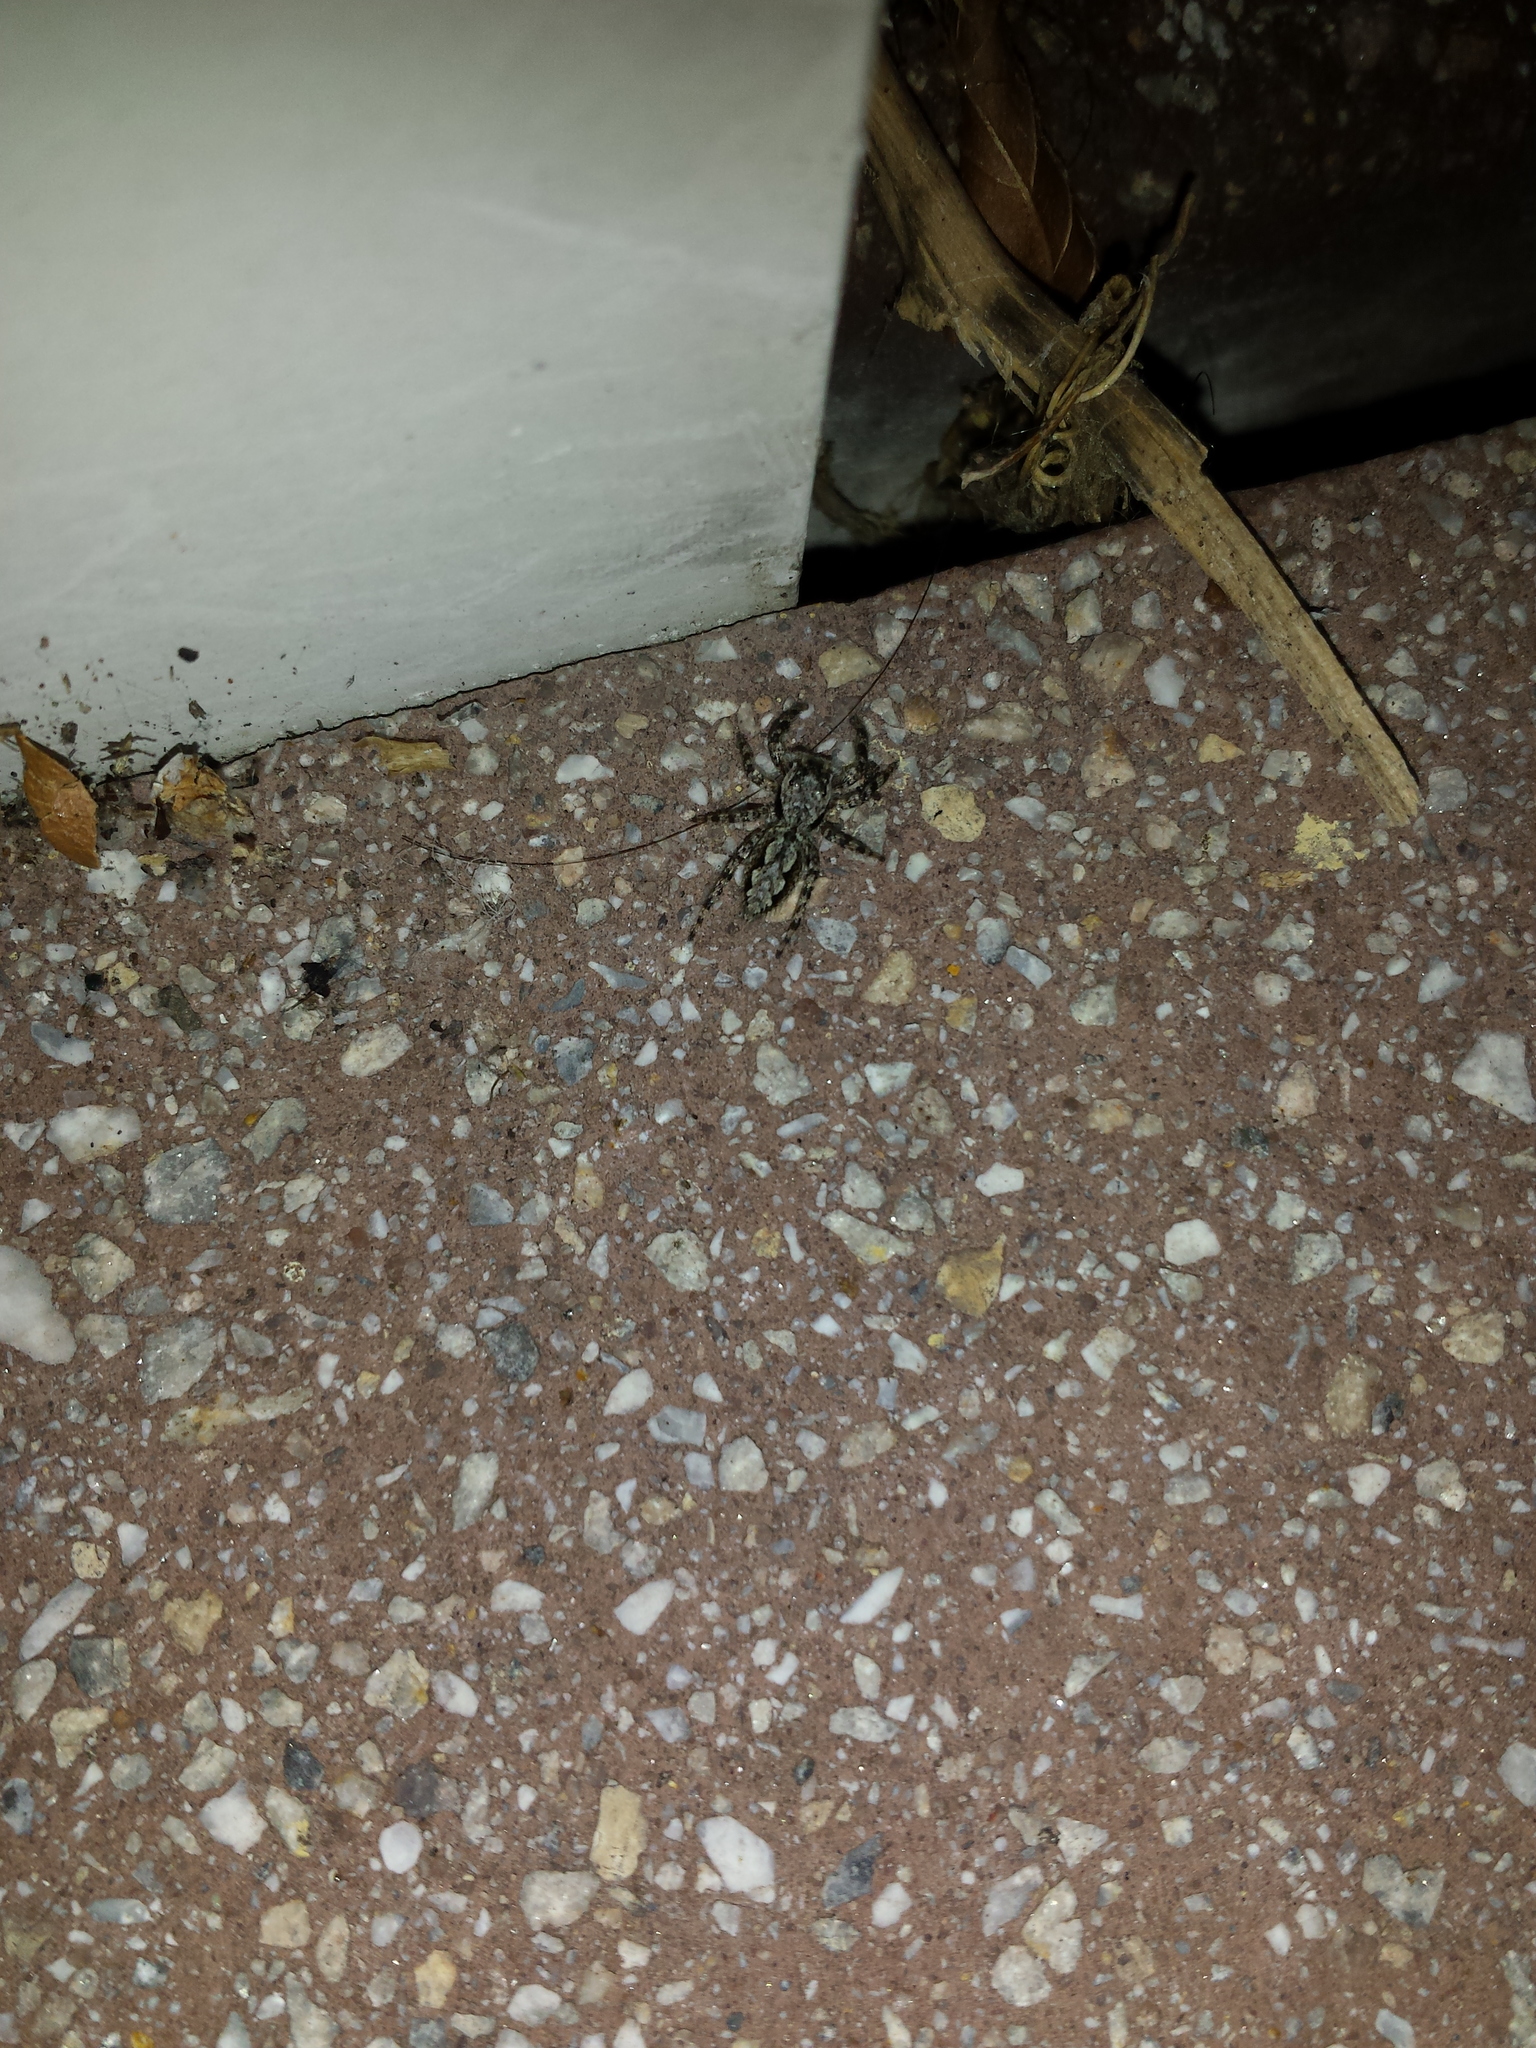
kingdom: Animalia
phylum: Arthropoda
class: Arachnida
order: Araneae
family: Salticidae
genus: Platycryptus
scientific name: Platycryptus undatus
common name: Tan jumping spider
